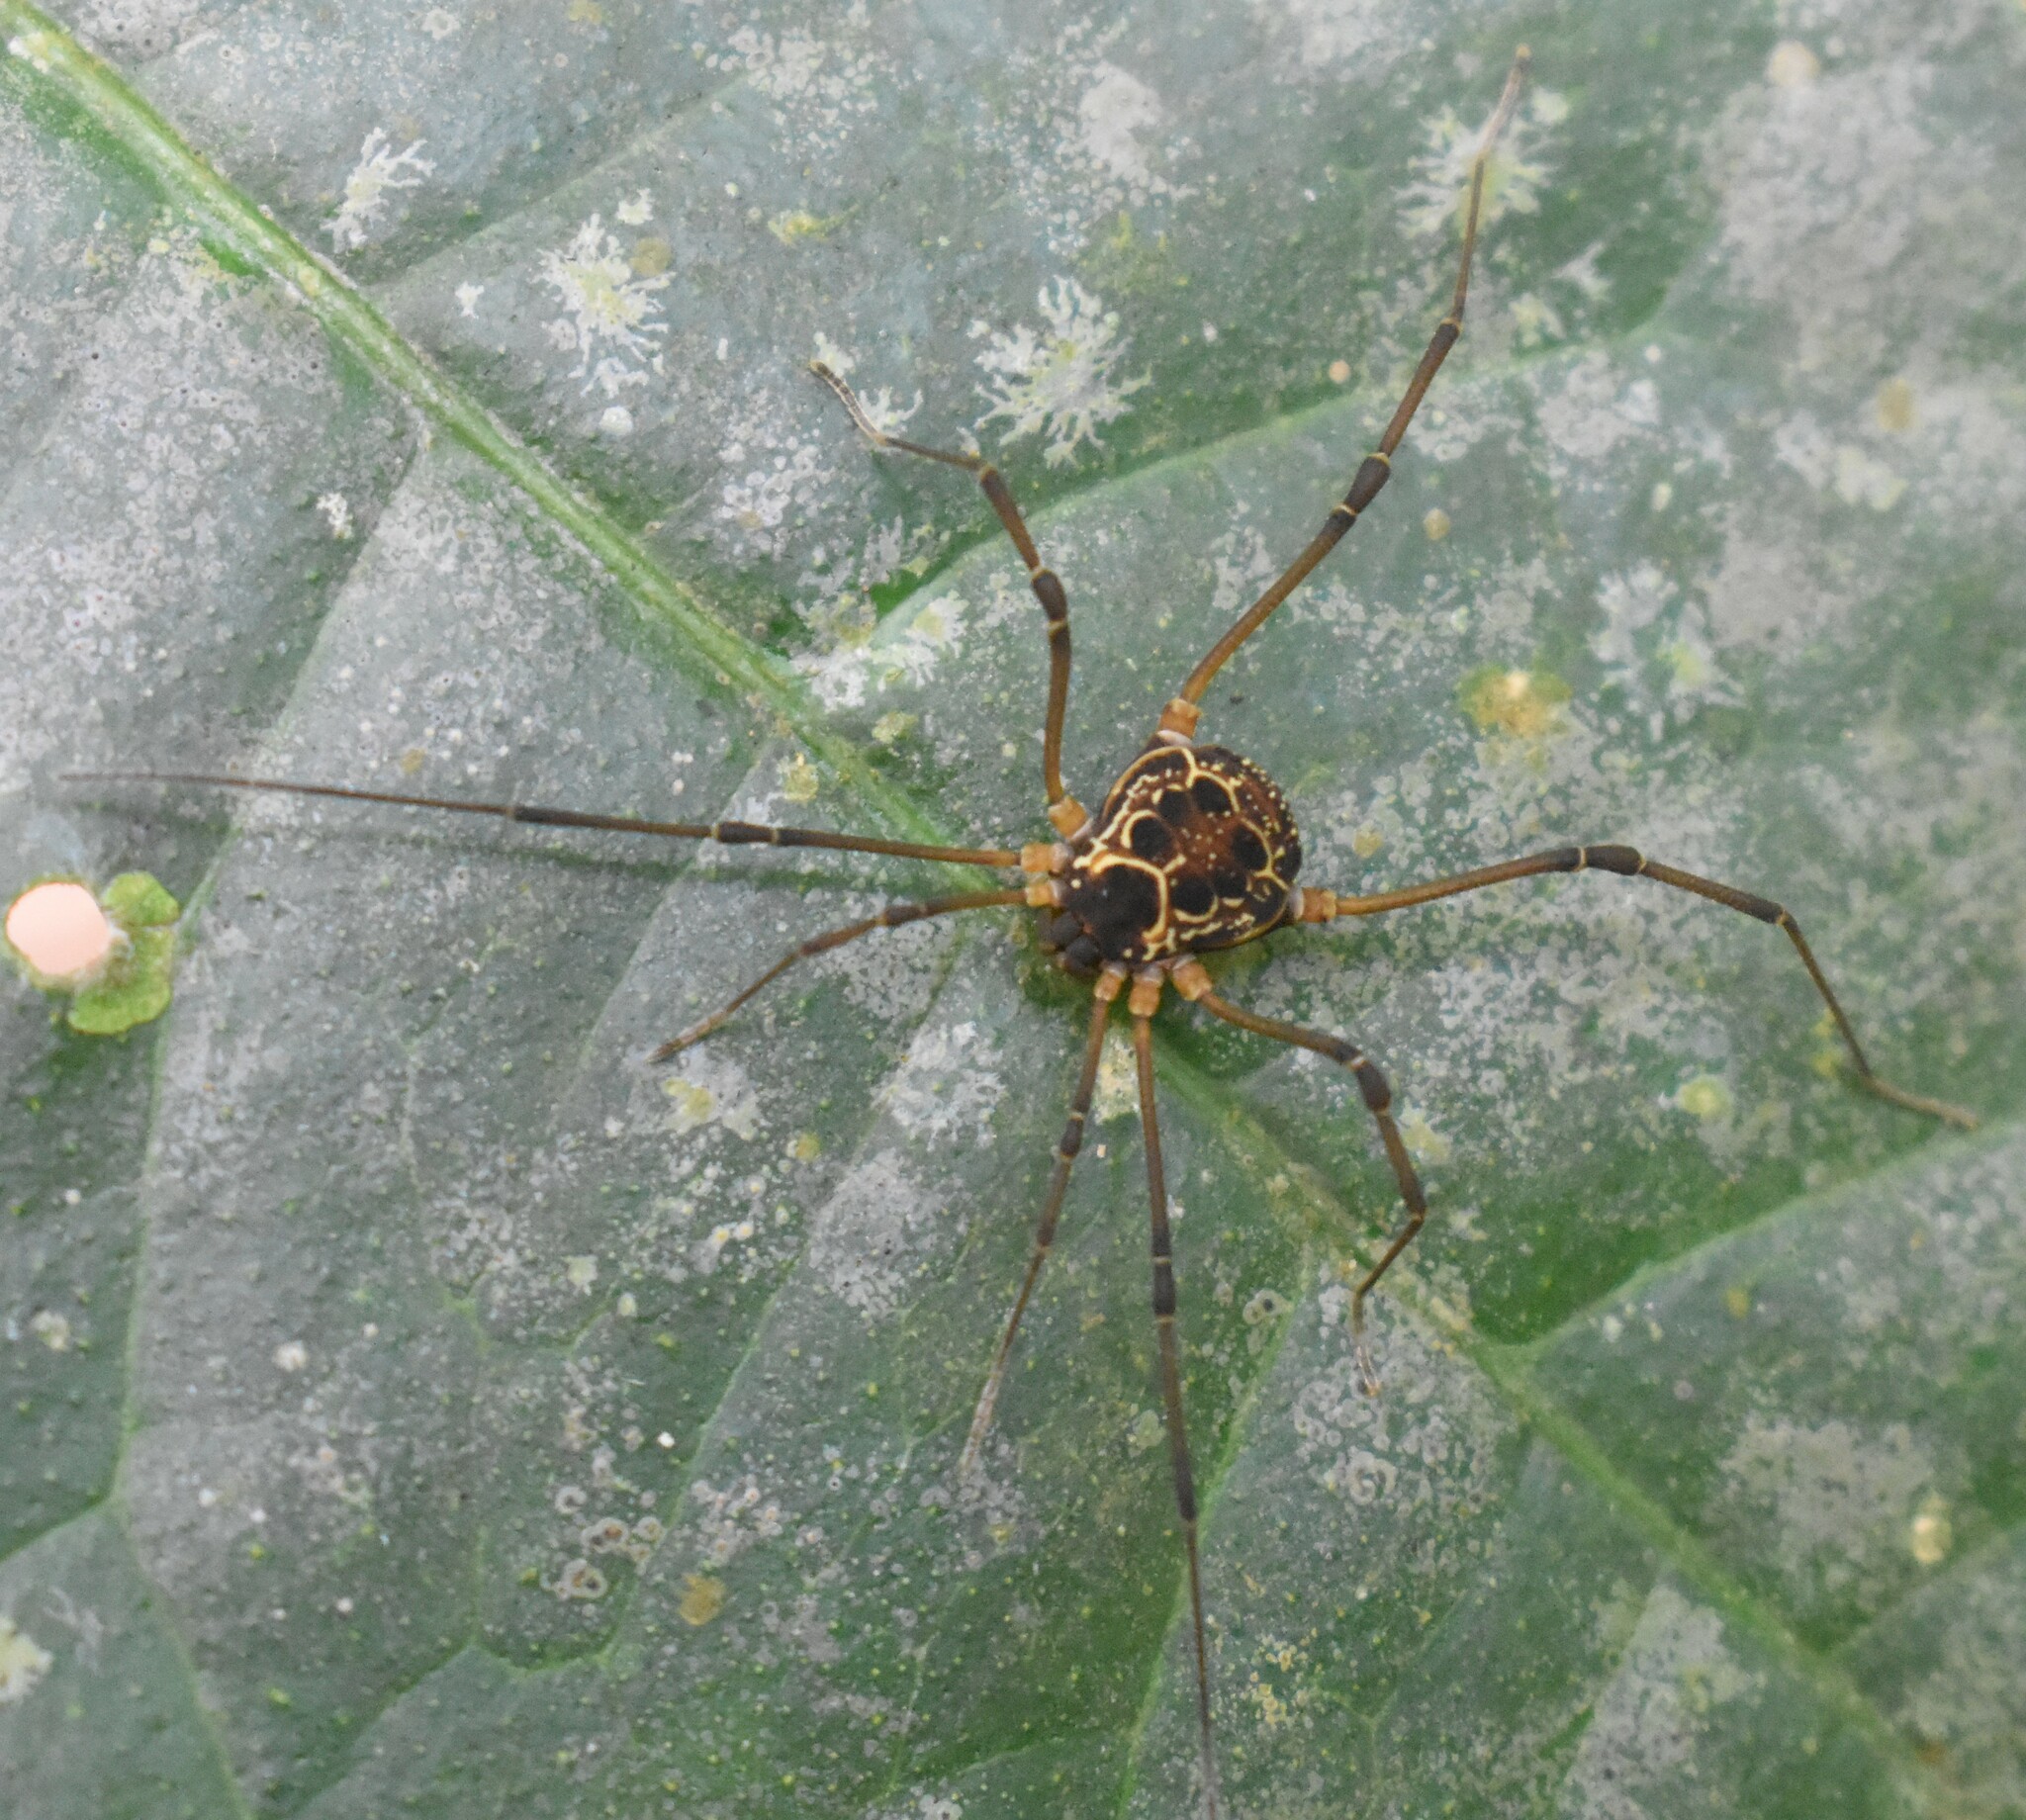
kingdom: Animalia
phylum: Arthropoda
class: Arachnida
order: Opiliones
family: Cosmetidae
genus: Eucynortula
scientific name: Eucynortula albipunctata
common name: Harvestmen
